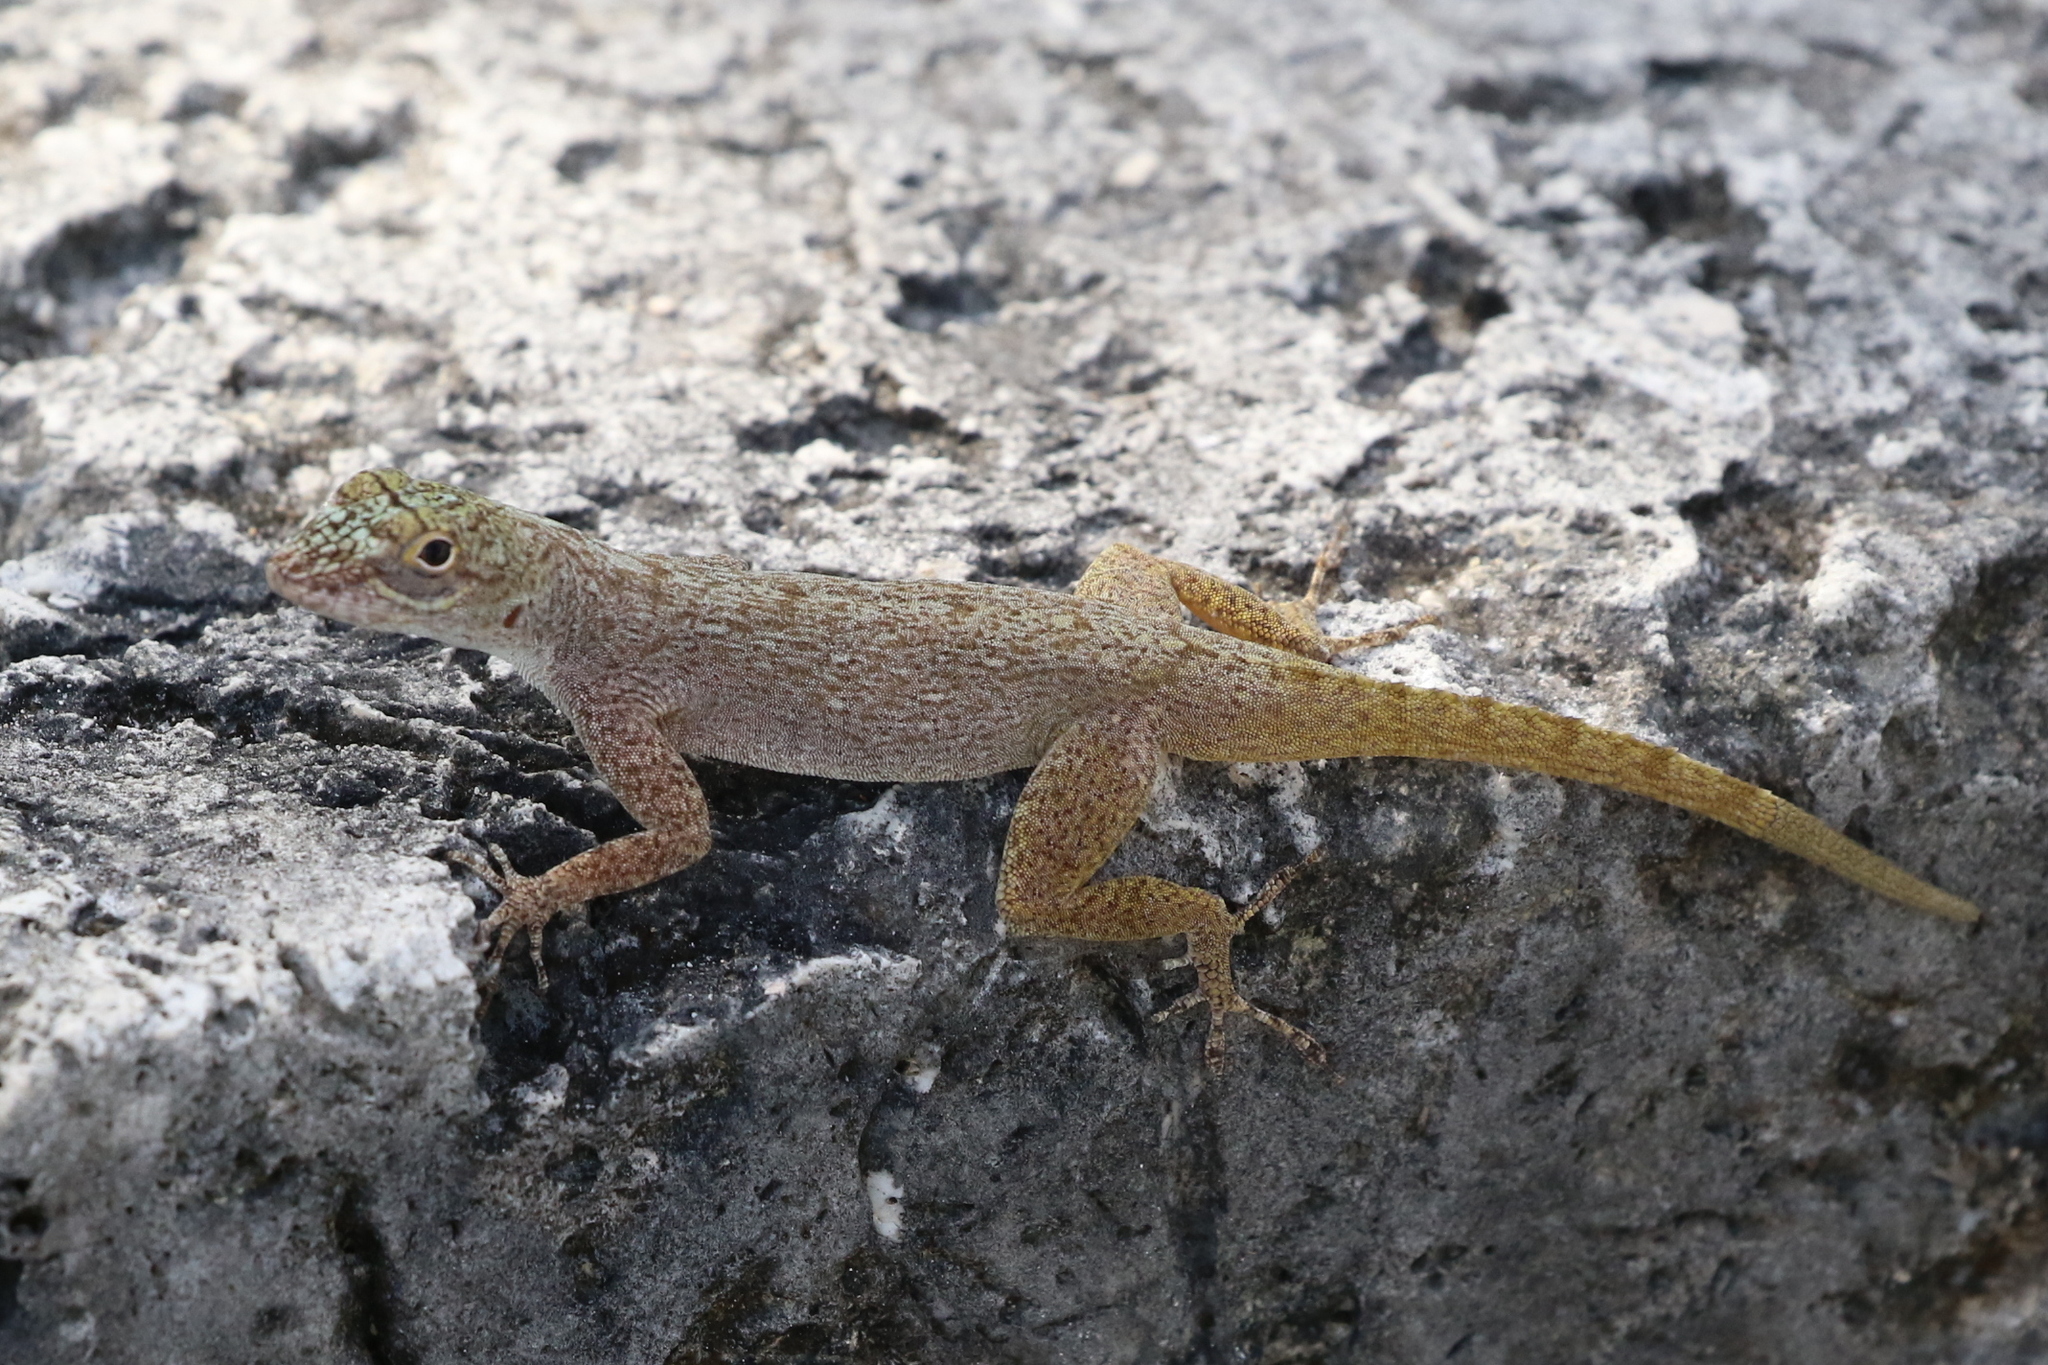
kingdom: Animalia
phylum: Chordata
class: Squamata
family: Dactyloidae
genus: Anolis
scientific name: Anolis distichus
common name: Bark anole
